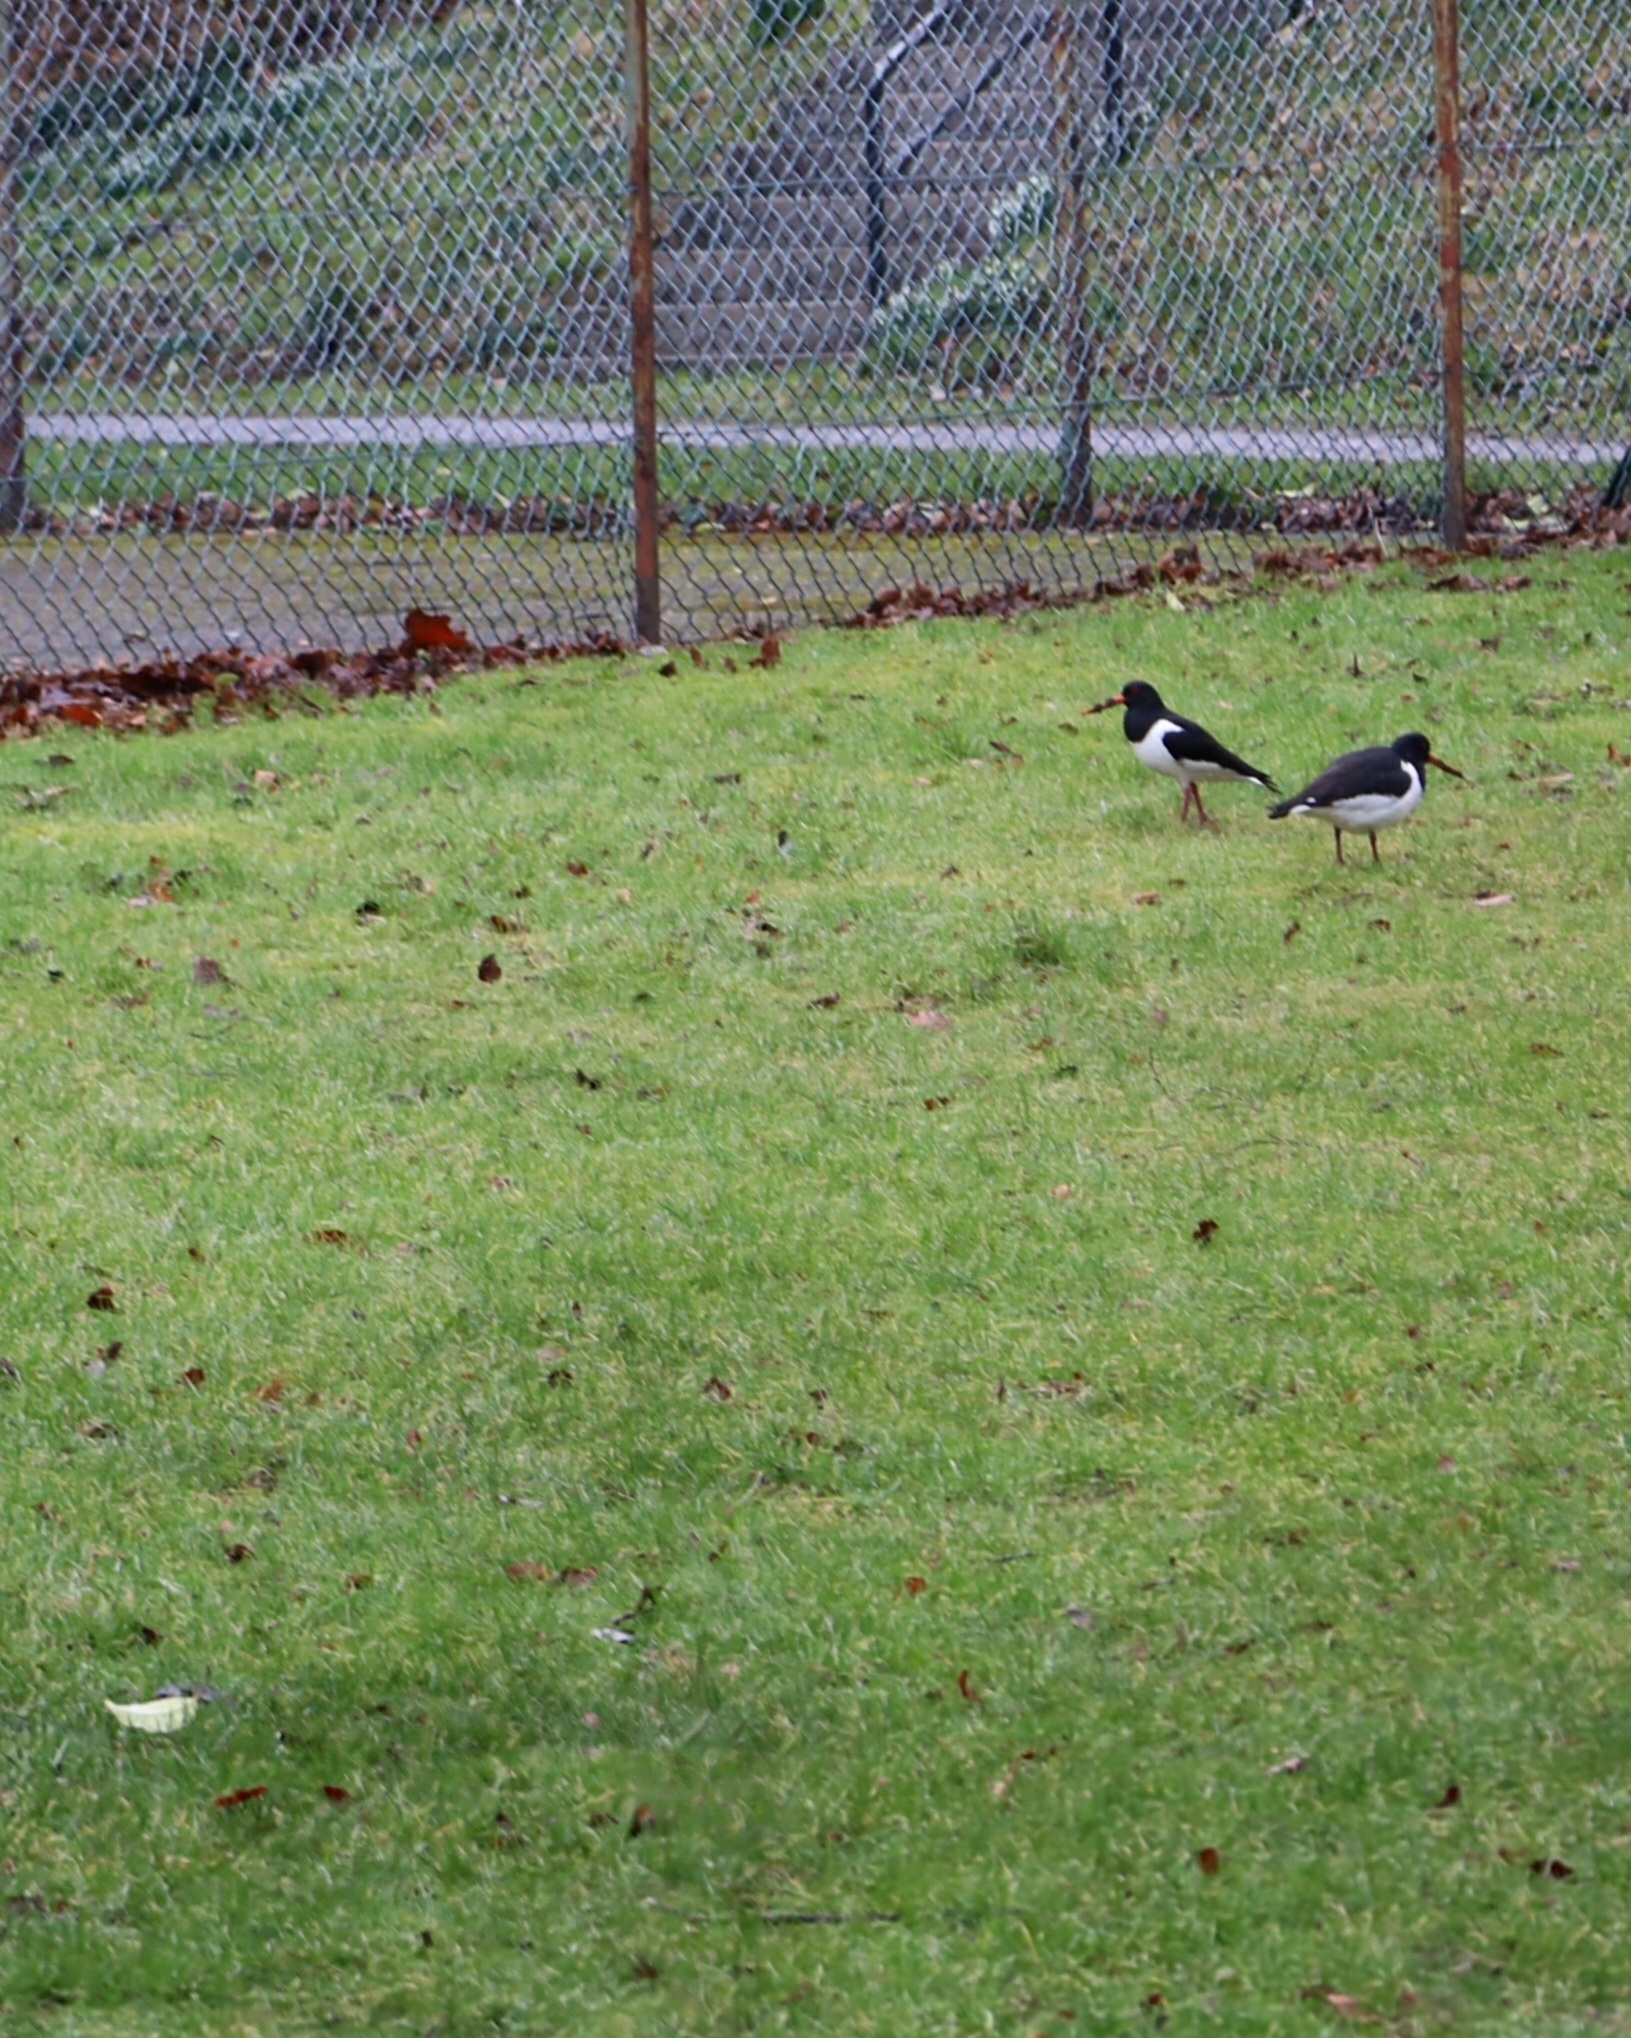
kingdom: Animalia
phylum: Chordata
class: Aves
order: Charadriiformes
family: Haematopodidae
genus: Haematopus
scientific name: Haematopus ostralegus
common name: Eurasian oystercatcher
